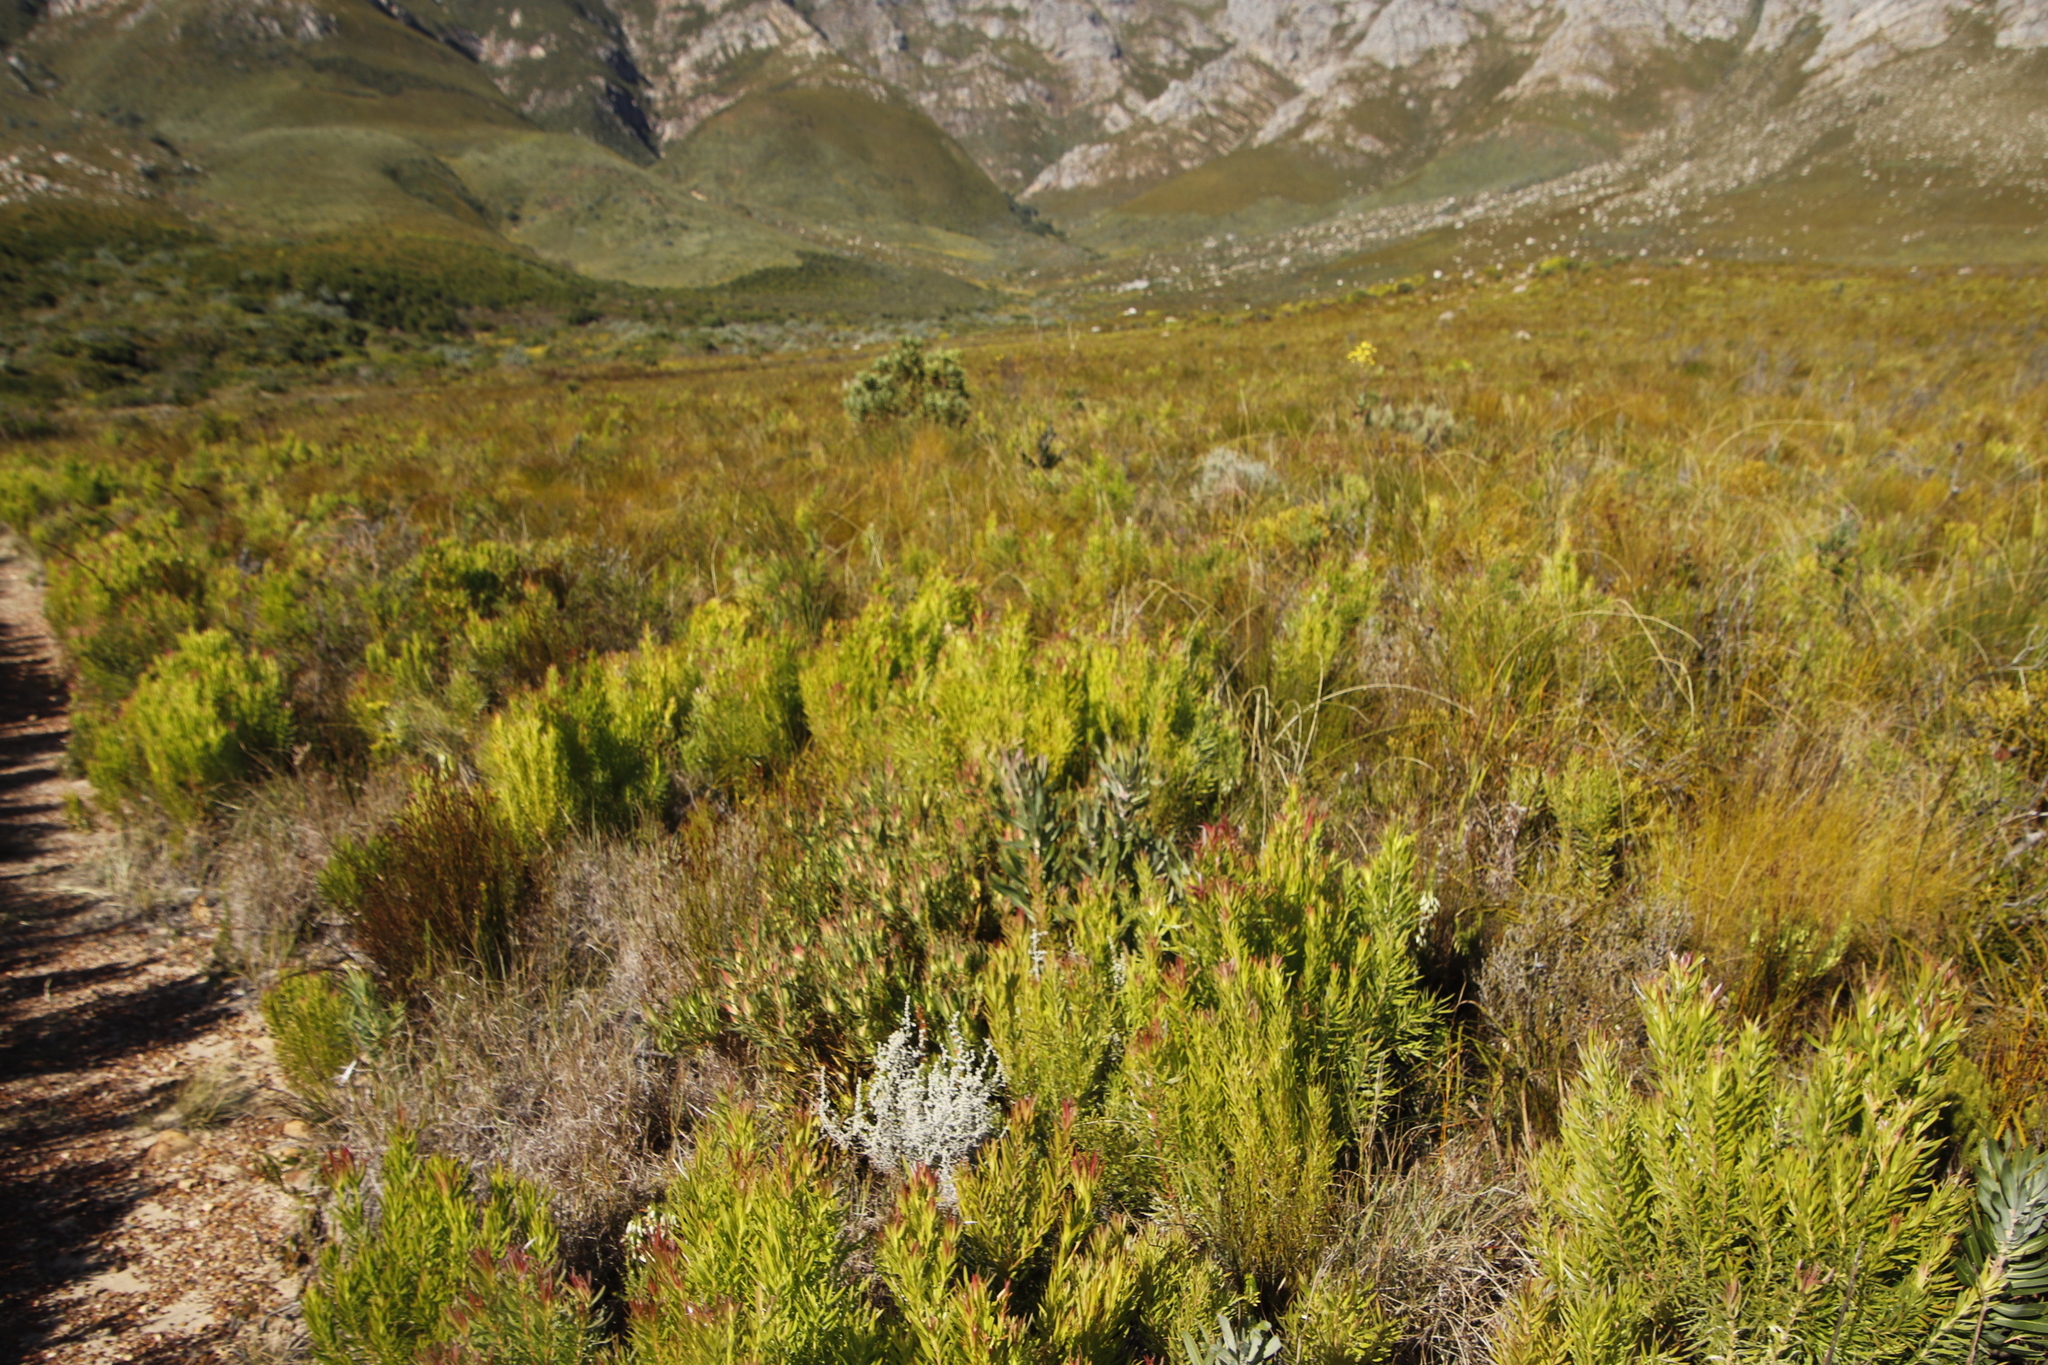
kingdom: Plantae
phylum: Tracheophyta
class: Magnoliopsida
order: Proteales
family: Proteaceae
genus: Leucadendron
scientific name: Leucadendron xanthoconus
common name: Sickle-leaf conebush
